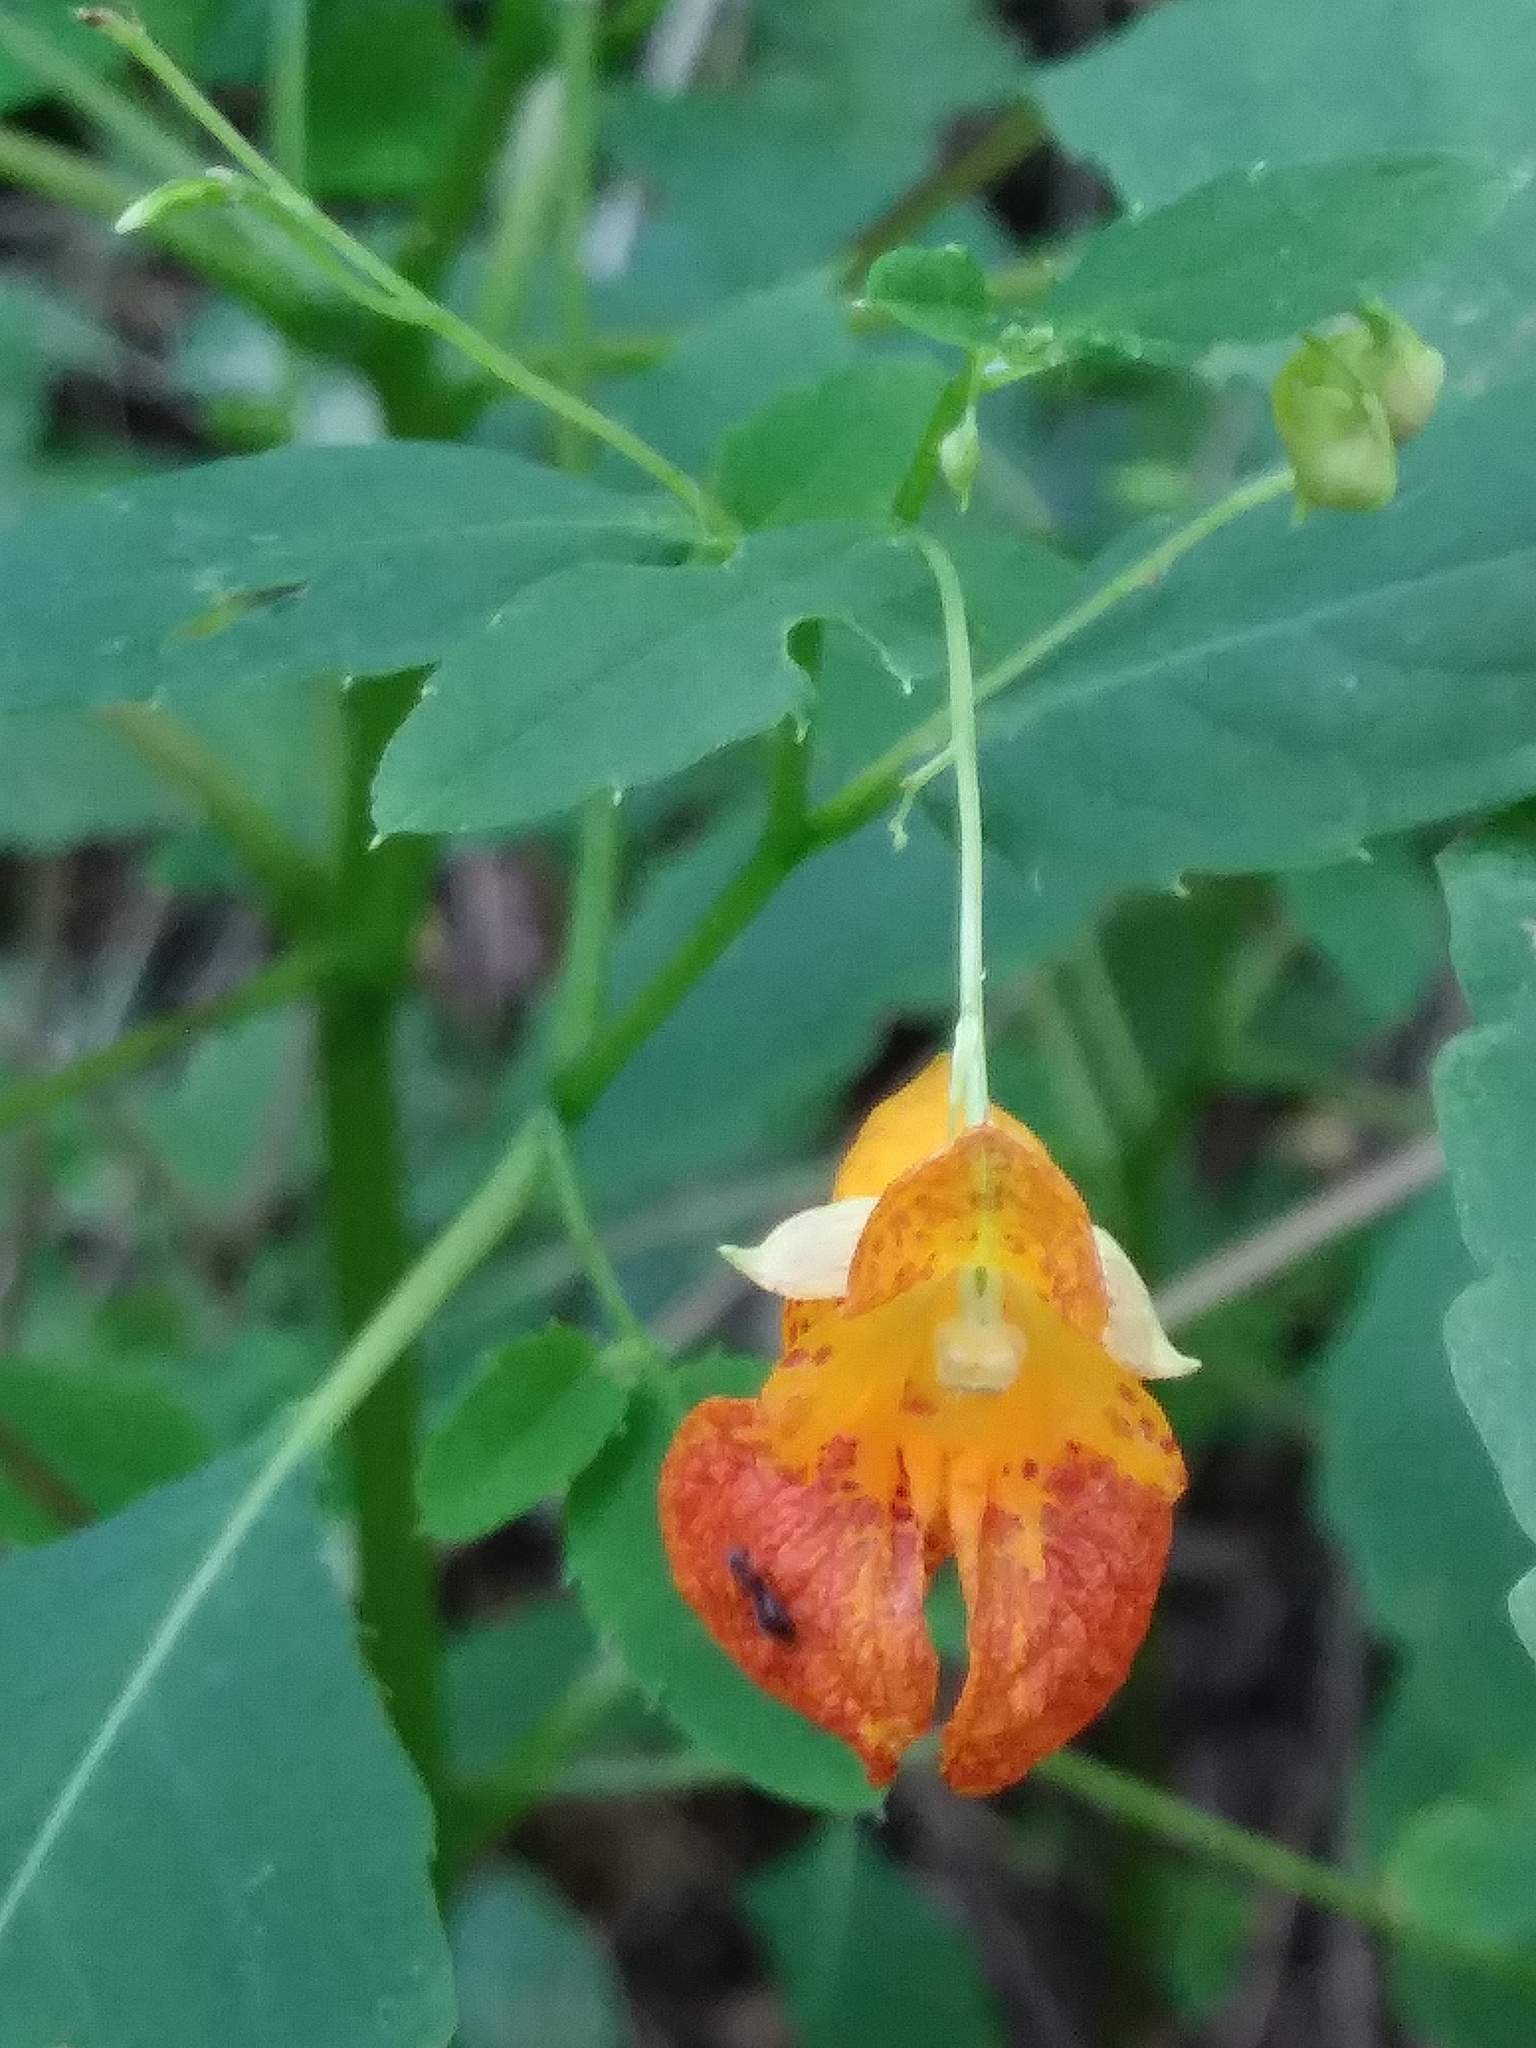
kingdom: Plantae
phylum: Tracheophyta
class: Magnoliopsida
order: Ericales
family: Balsaminaceae
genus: Impatiens
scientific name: Impatiens capensis
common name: Orange balsam
